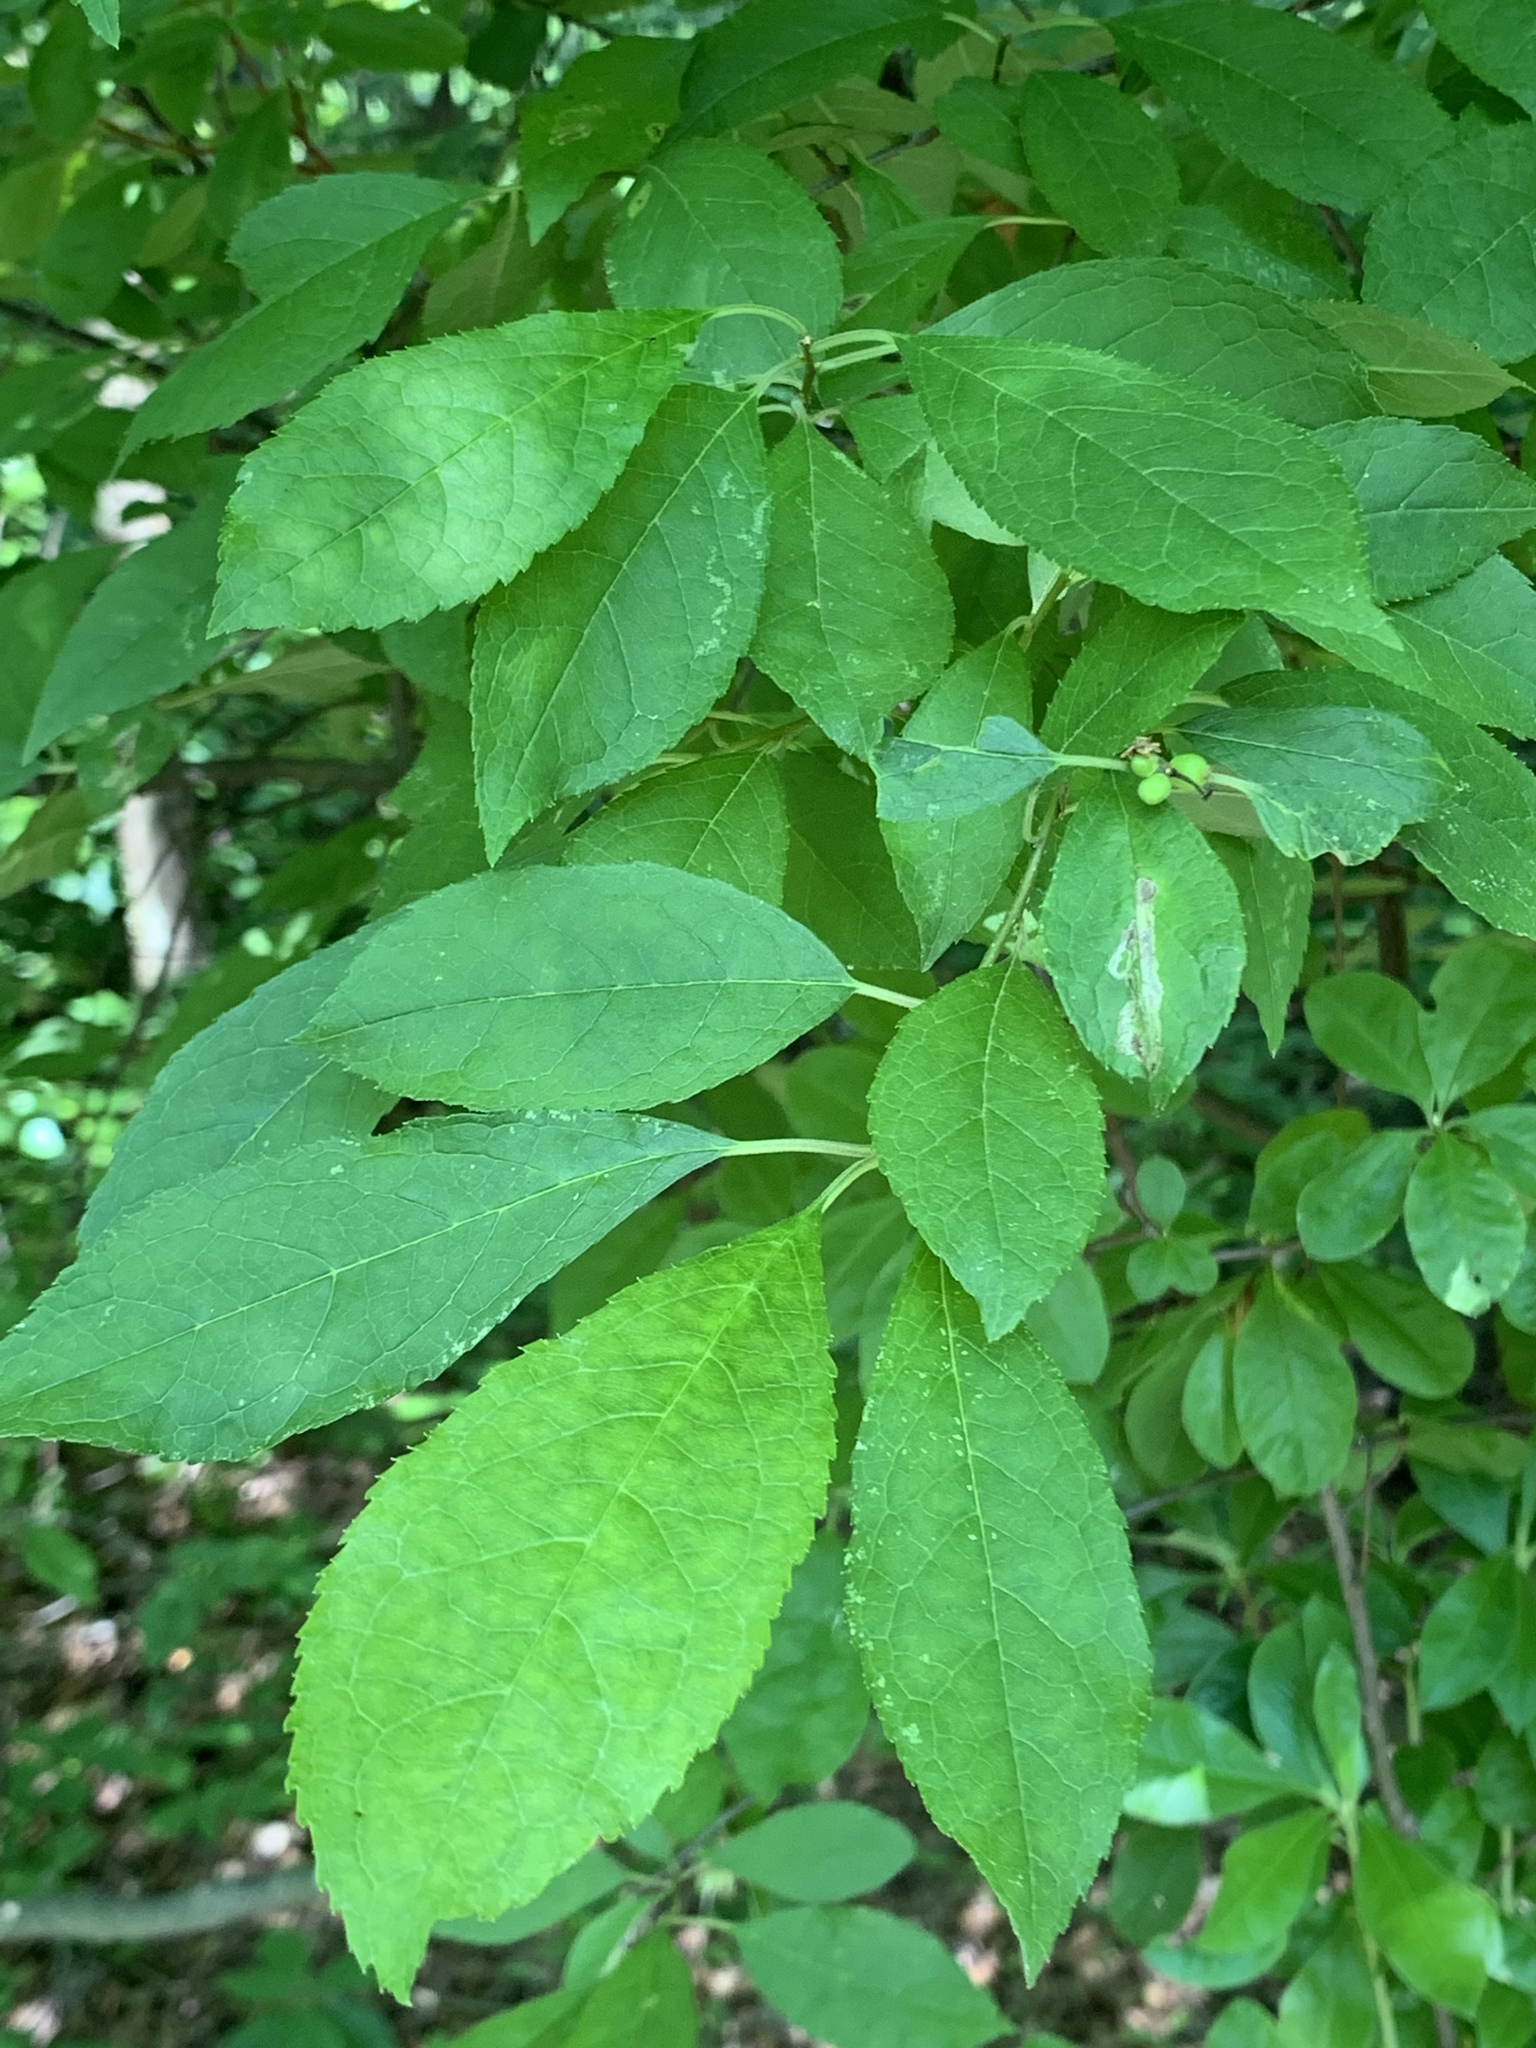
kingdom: Plantae
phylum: Tracheophyta
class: Magnoliopsida
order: Aquifoliales
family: Aquifoliaceae
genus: Ilex
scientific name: Ilex verticillata
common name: Virginia winterberry
